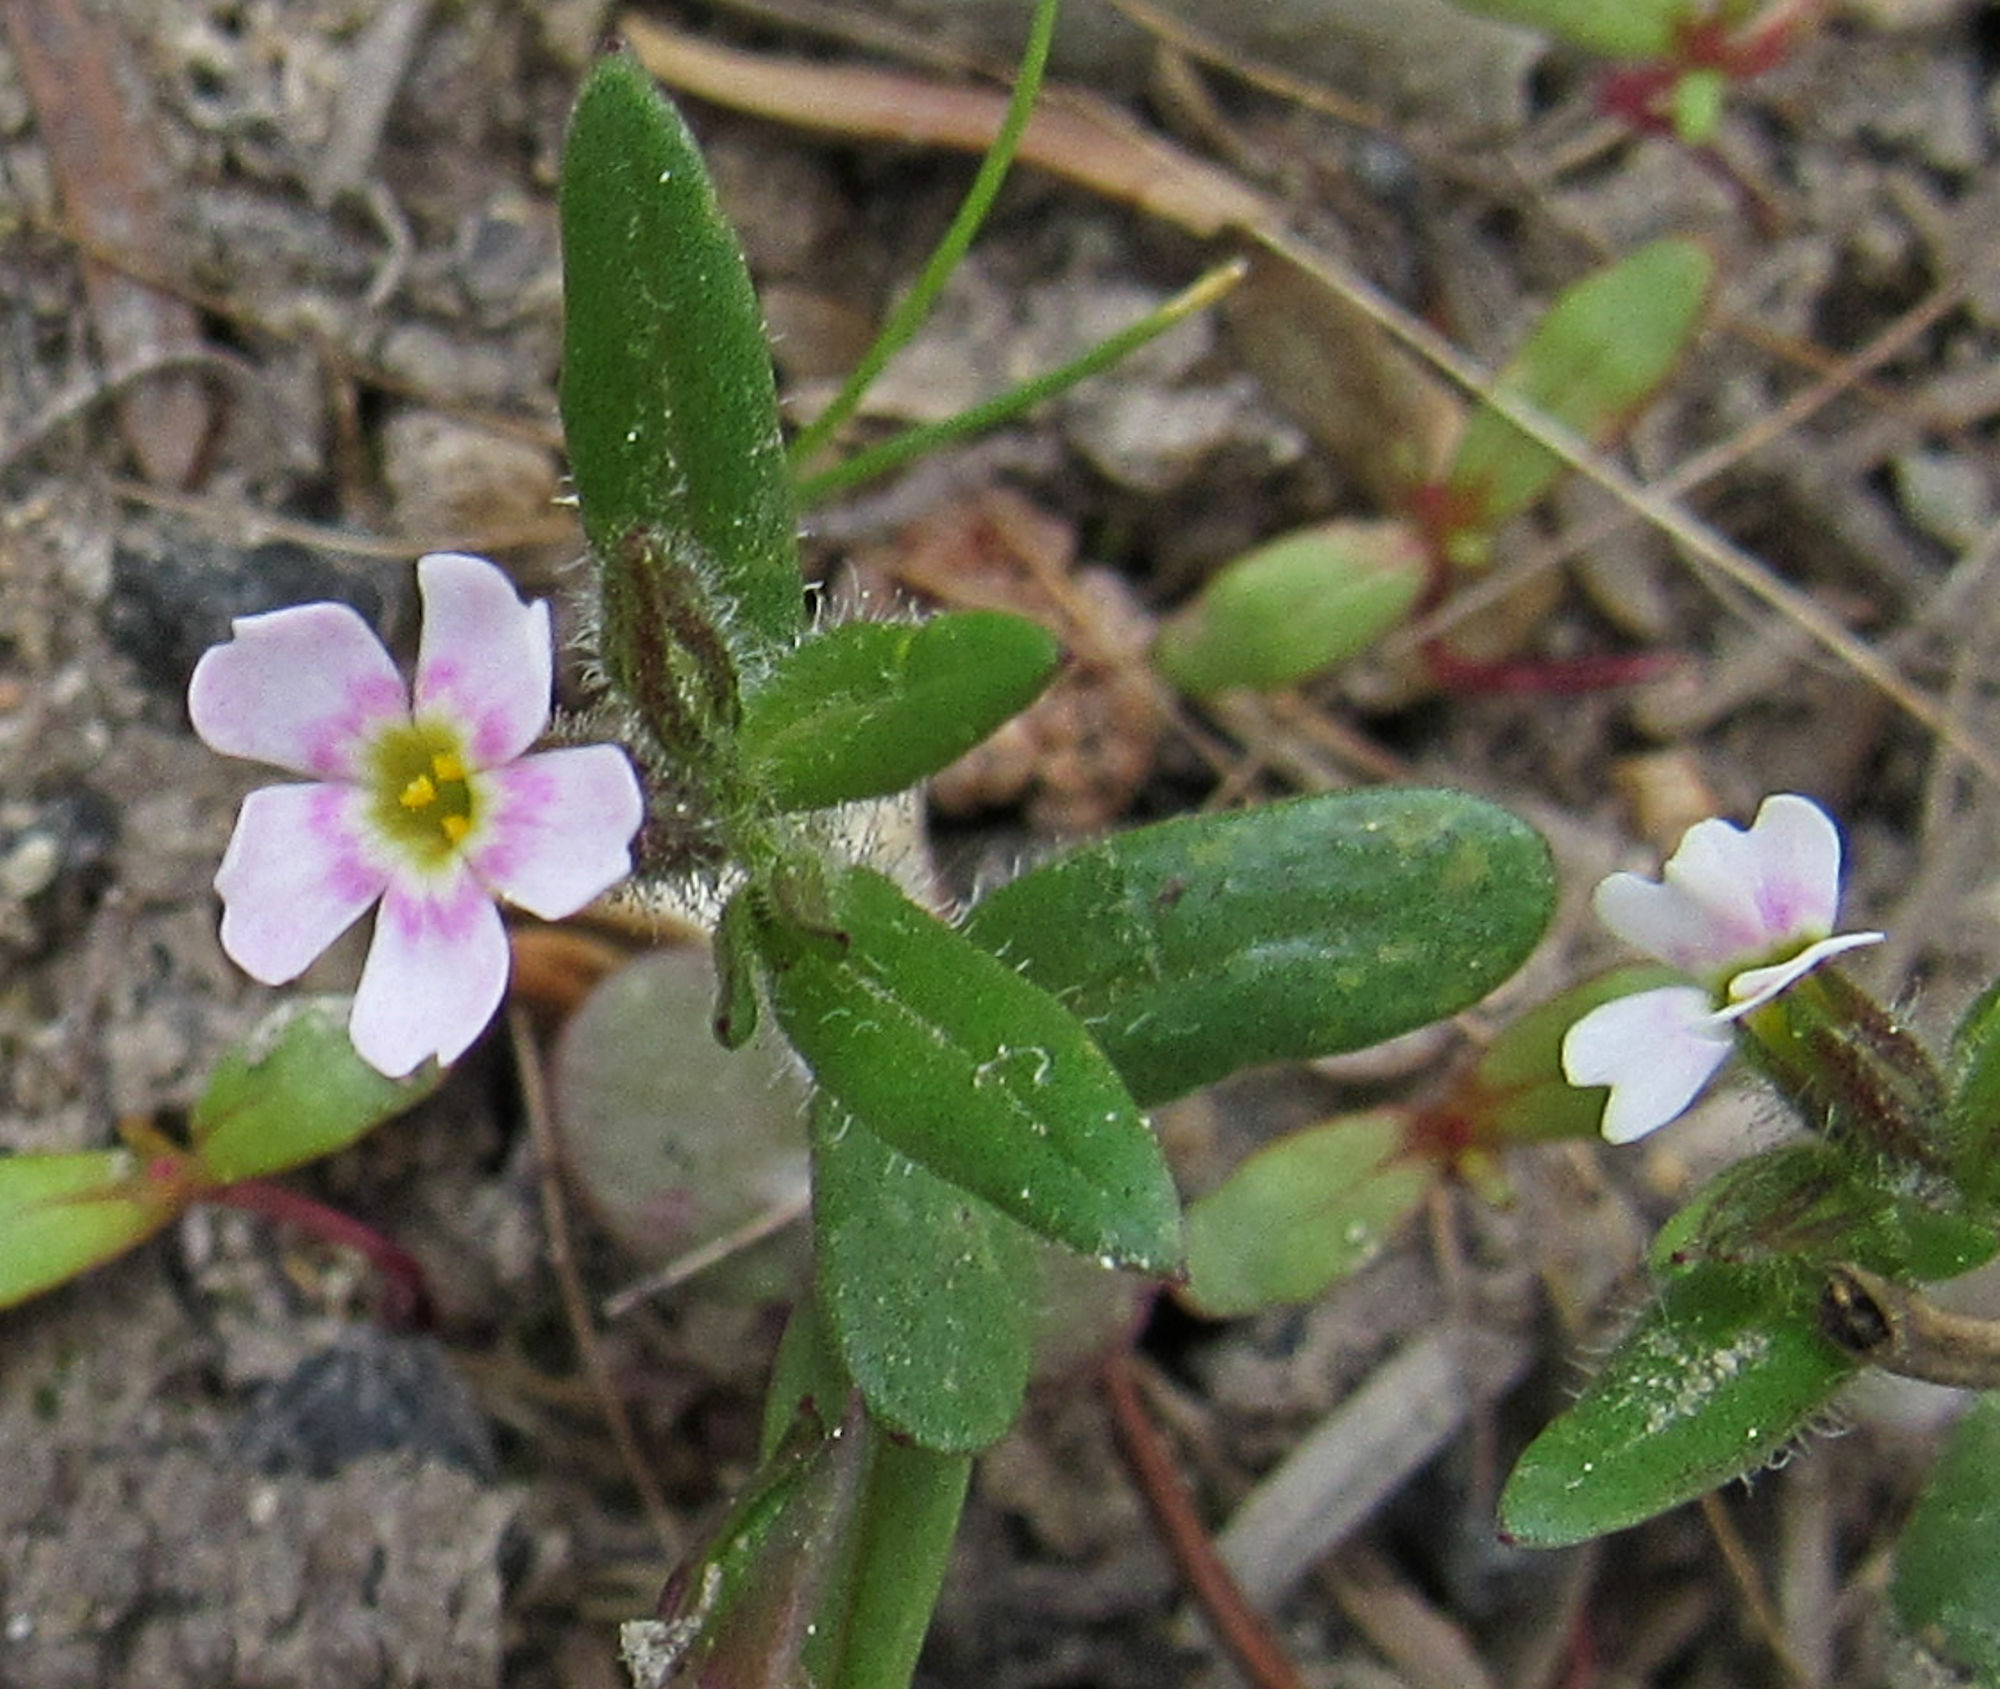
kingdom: Plantae
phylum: Tracheophyta
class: Magnoliopsida
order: Ericales
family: Polemoniaceae
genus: Phlox
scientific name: Phlox gracilis
